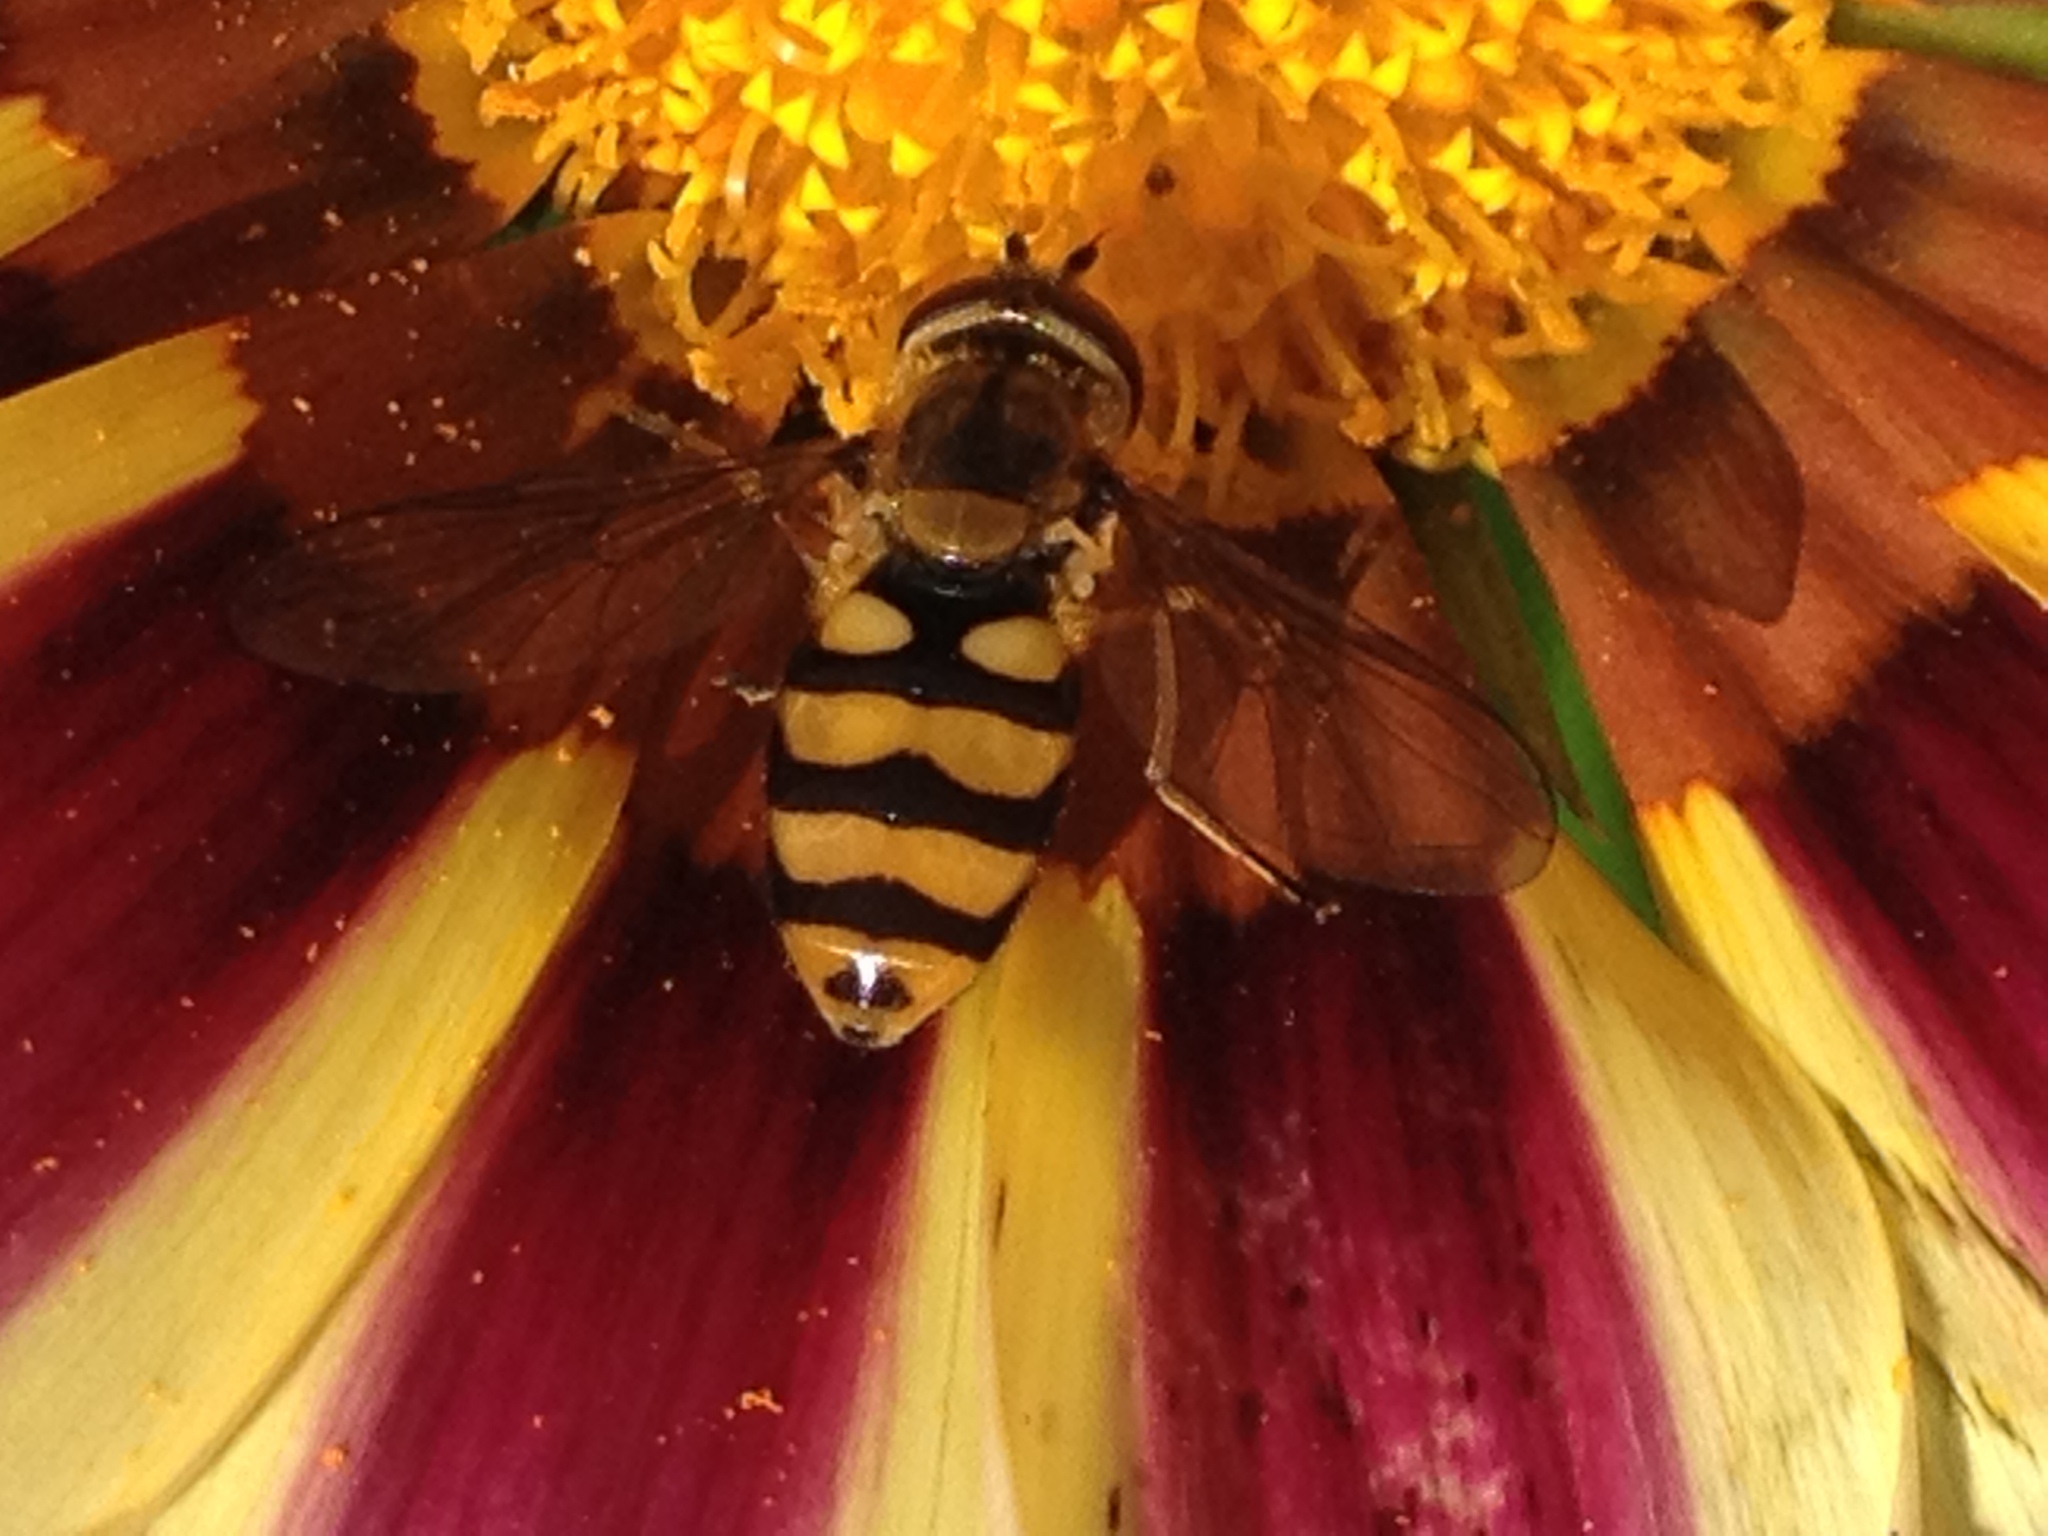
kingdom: Animalia
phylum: Arthropoda
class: Insecta
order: Diptera
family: Syrphidae
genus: Eupeodes
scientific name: Eupeodes latifasciatus
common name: Variable aphideater
